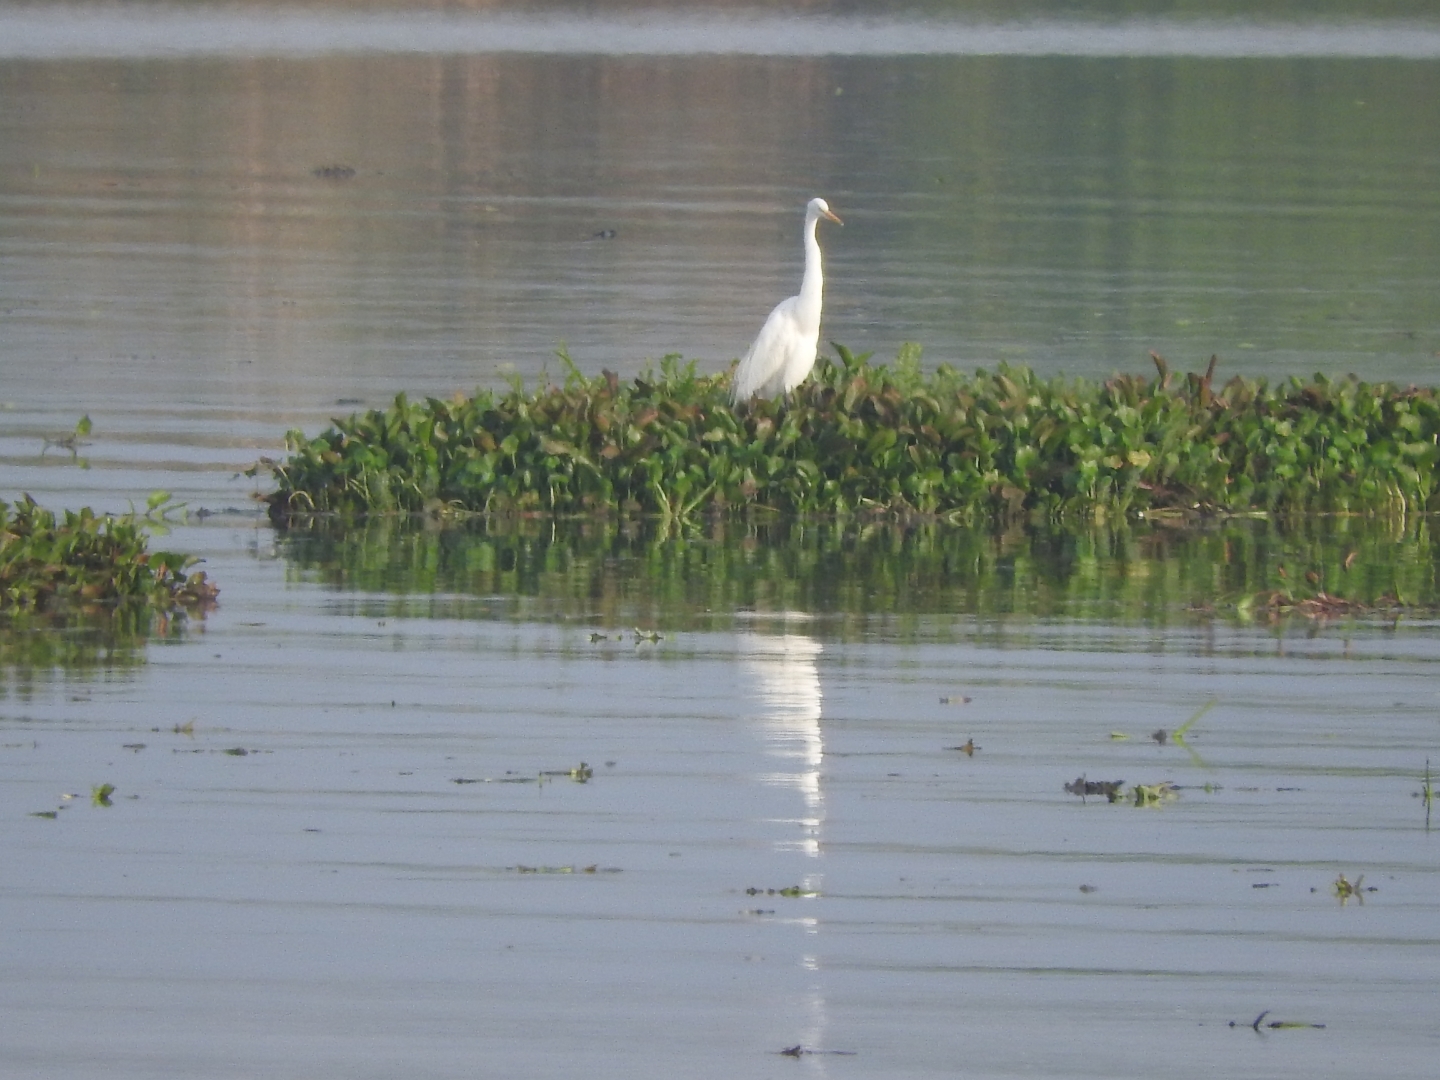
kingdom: Animalia
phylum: Chordata
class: Aves
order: Pelecaniformes
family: Ardeidae
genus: Ardea
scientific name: Ardea alba
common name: Great egret
